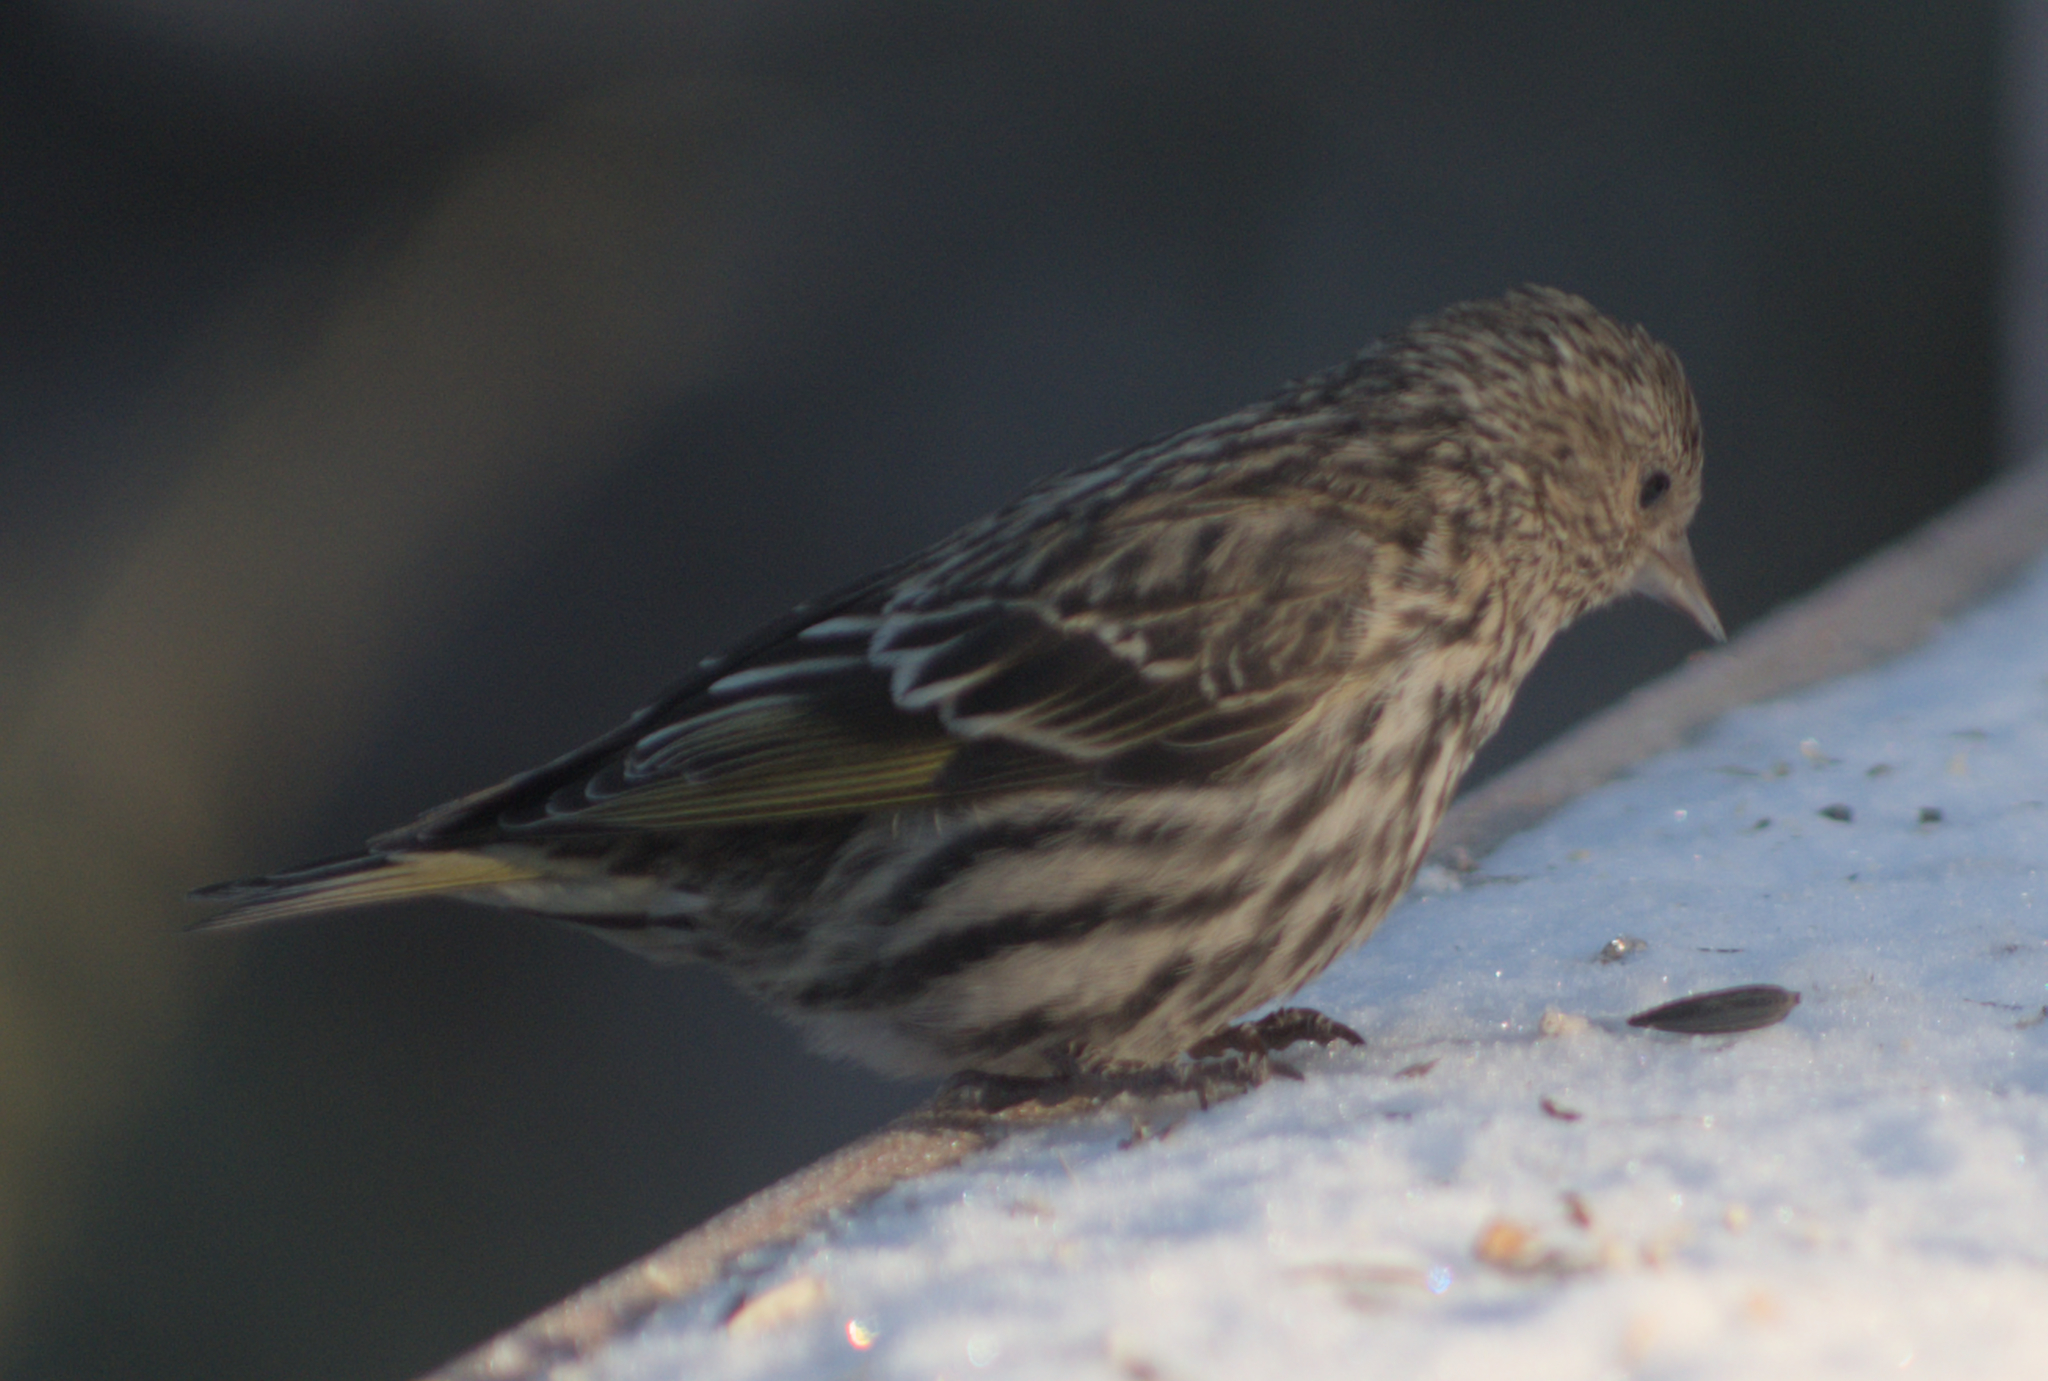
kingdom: Animalia
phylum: Chordata
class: Aves
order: Passeriformes
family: Fringillidae
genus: Spinus
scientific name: Spinus pinus
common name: Pine siskin
